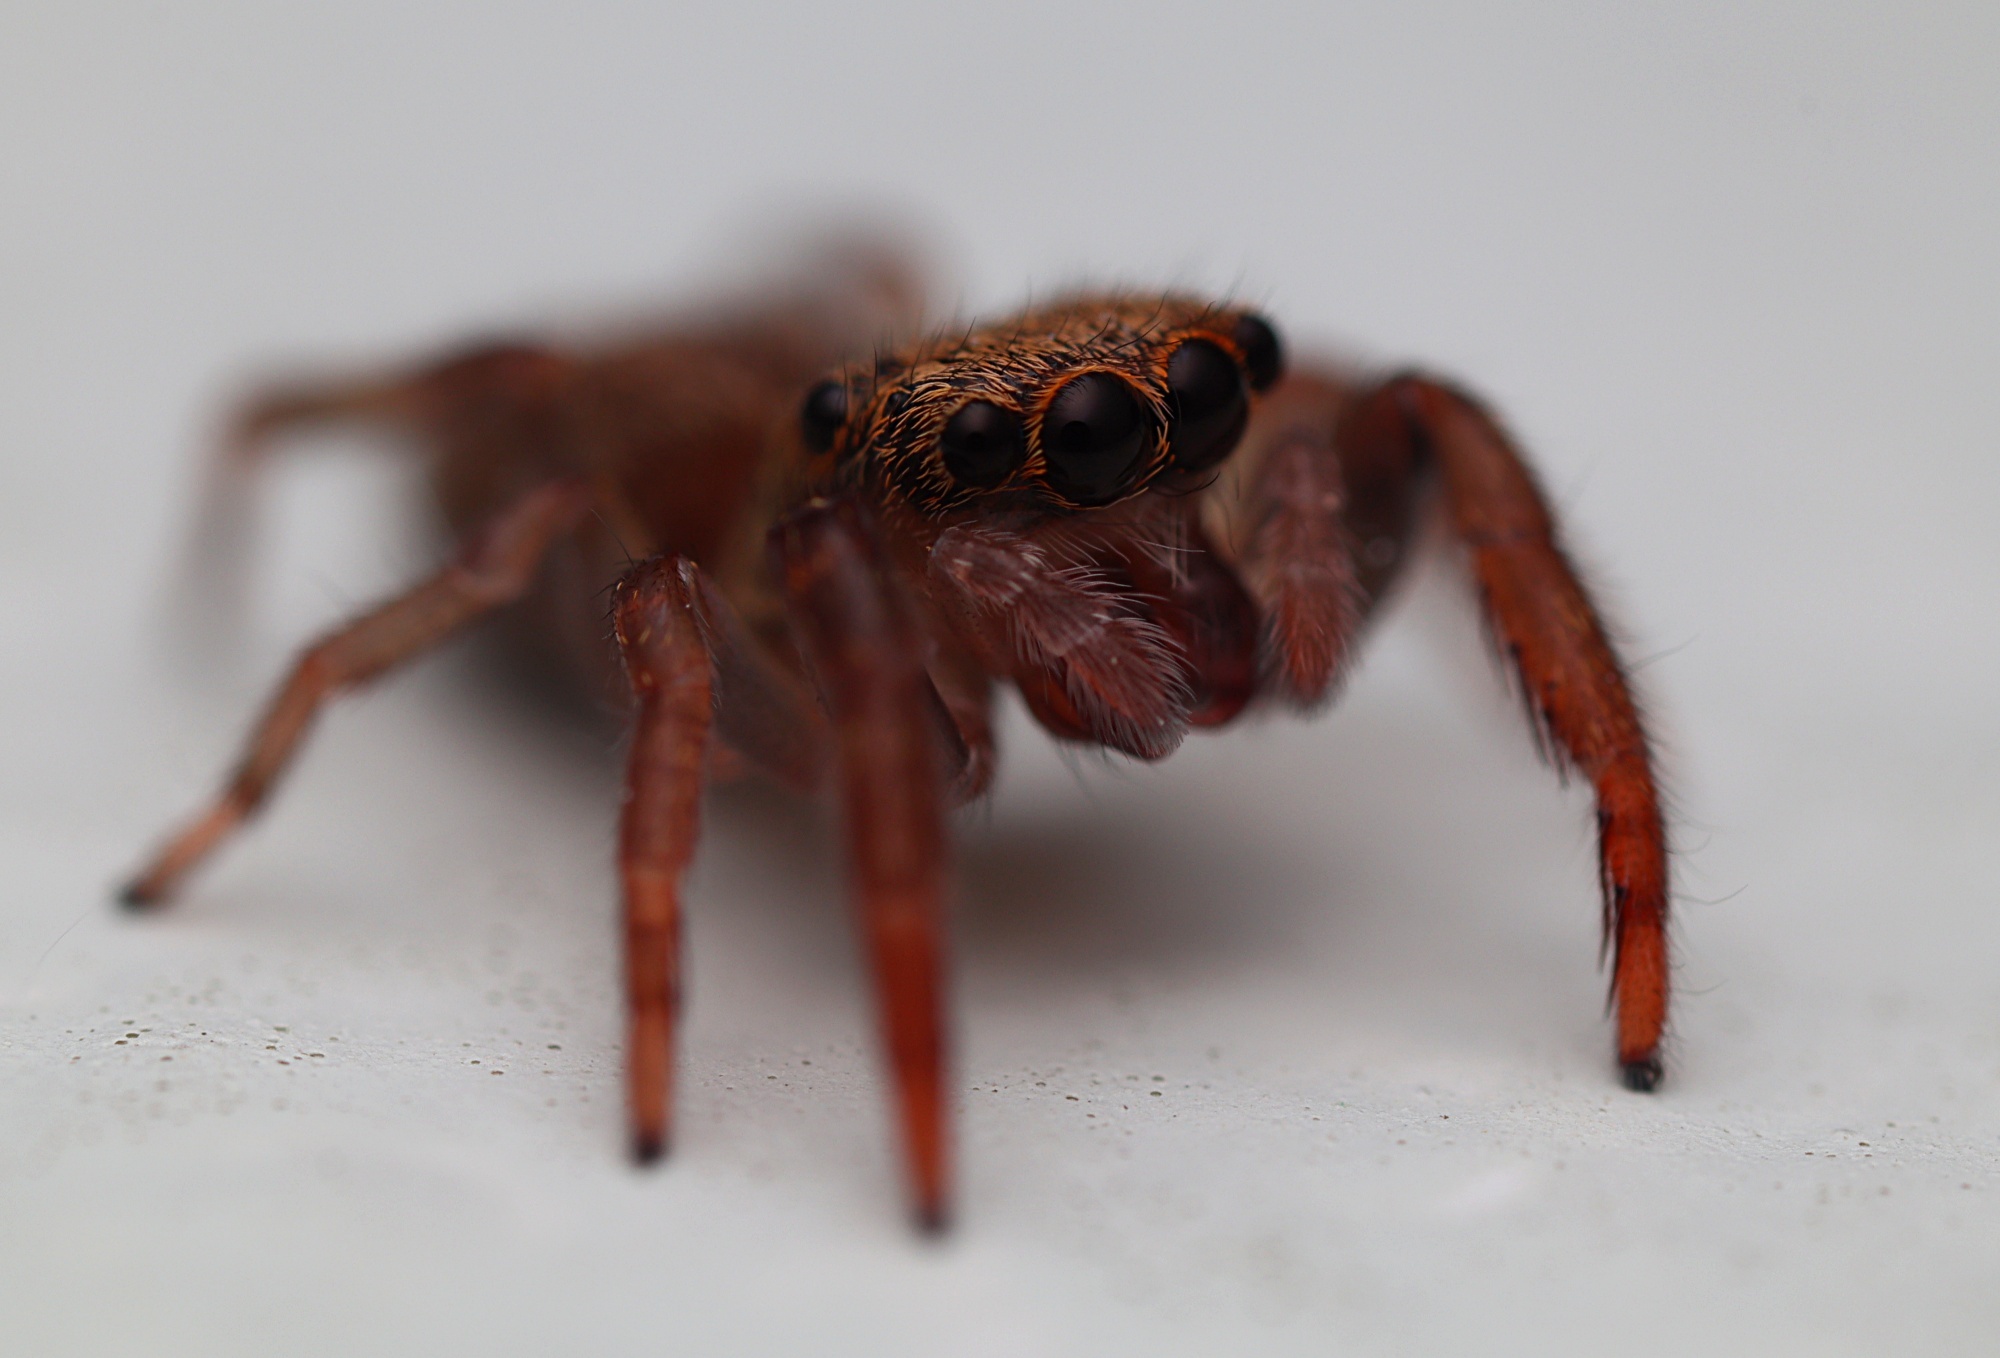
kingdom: Animalia
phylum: Arthropoda
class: Arachnida
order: Araneae
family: Salticidae
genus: Trite
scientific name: Trite auricoma
